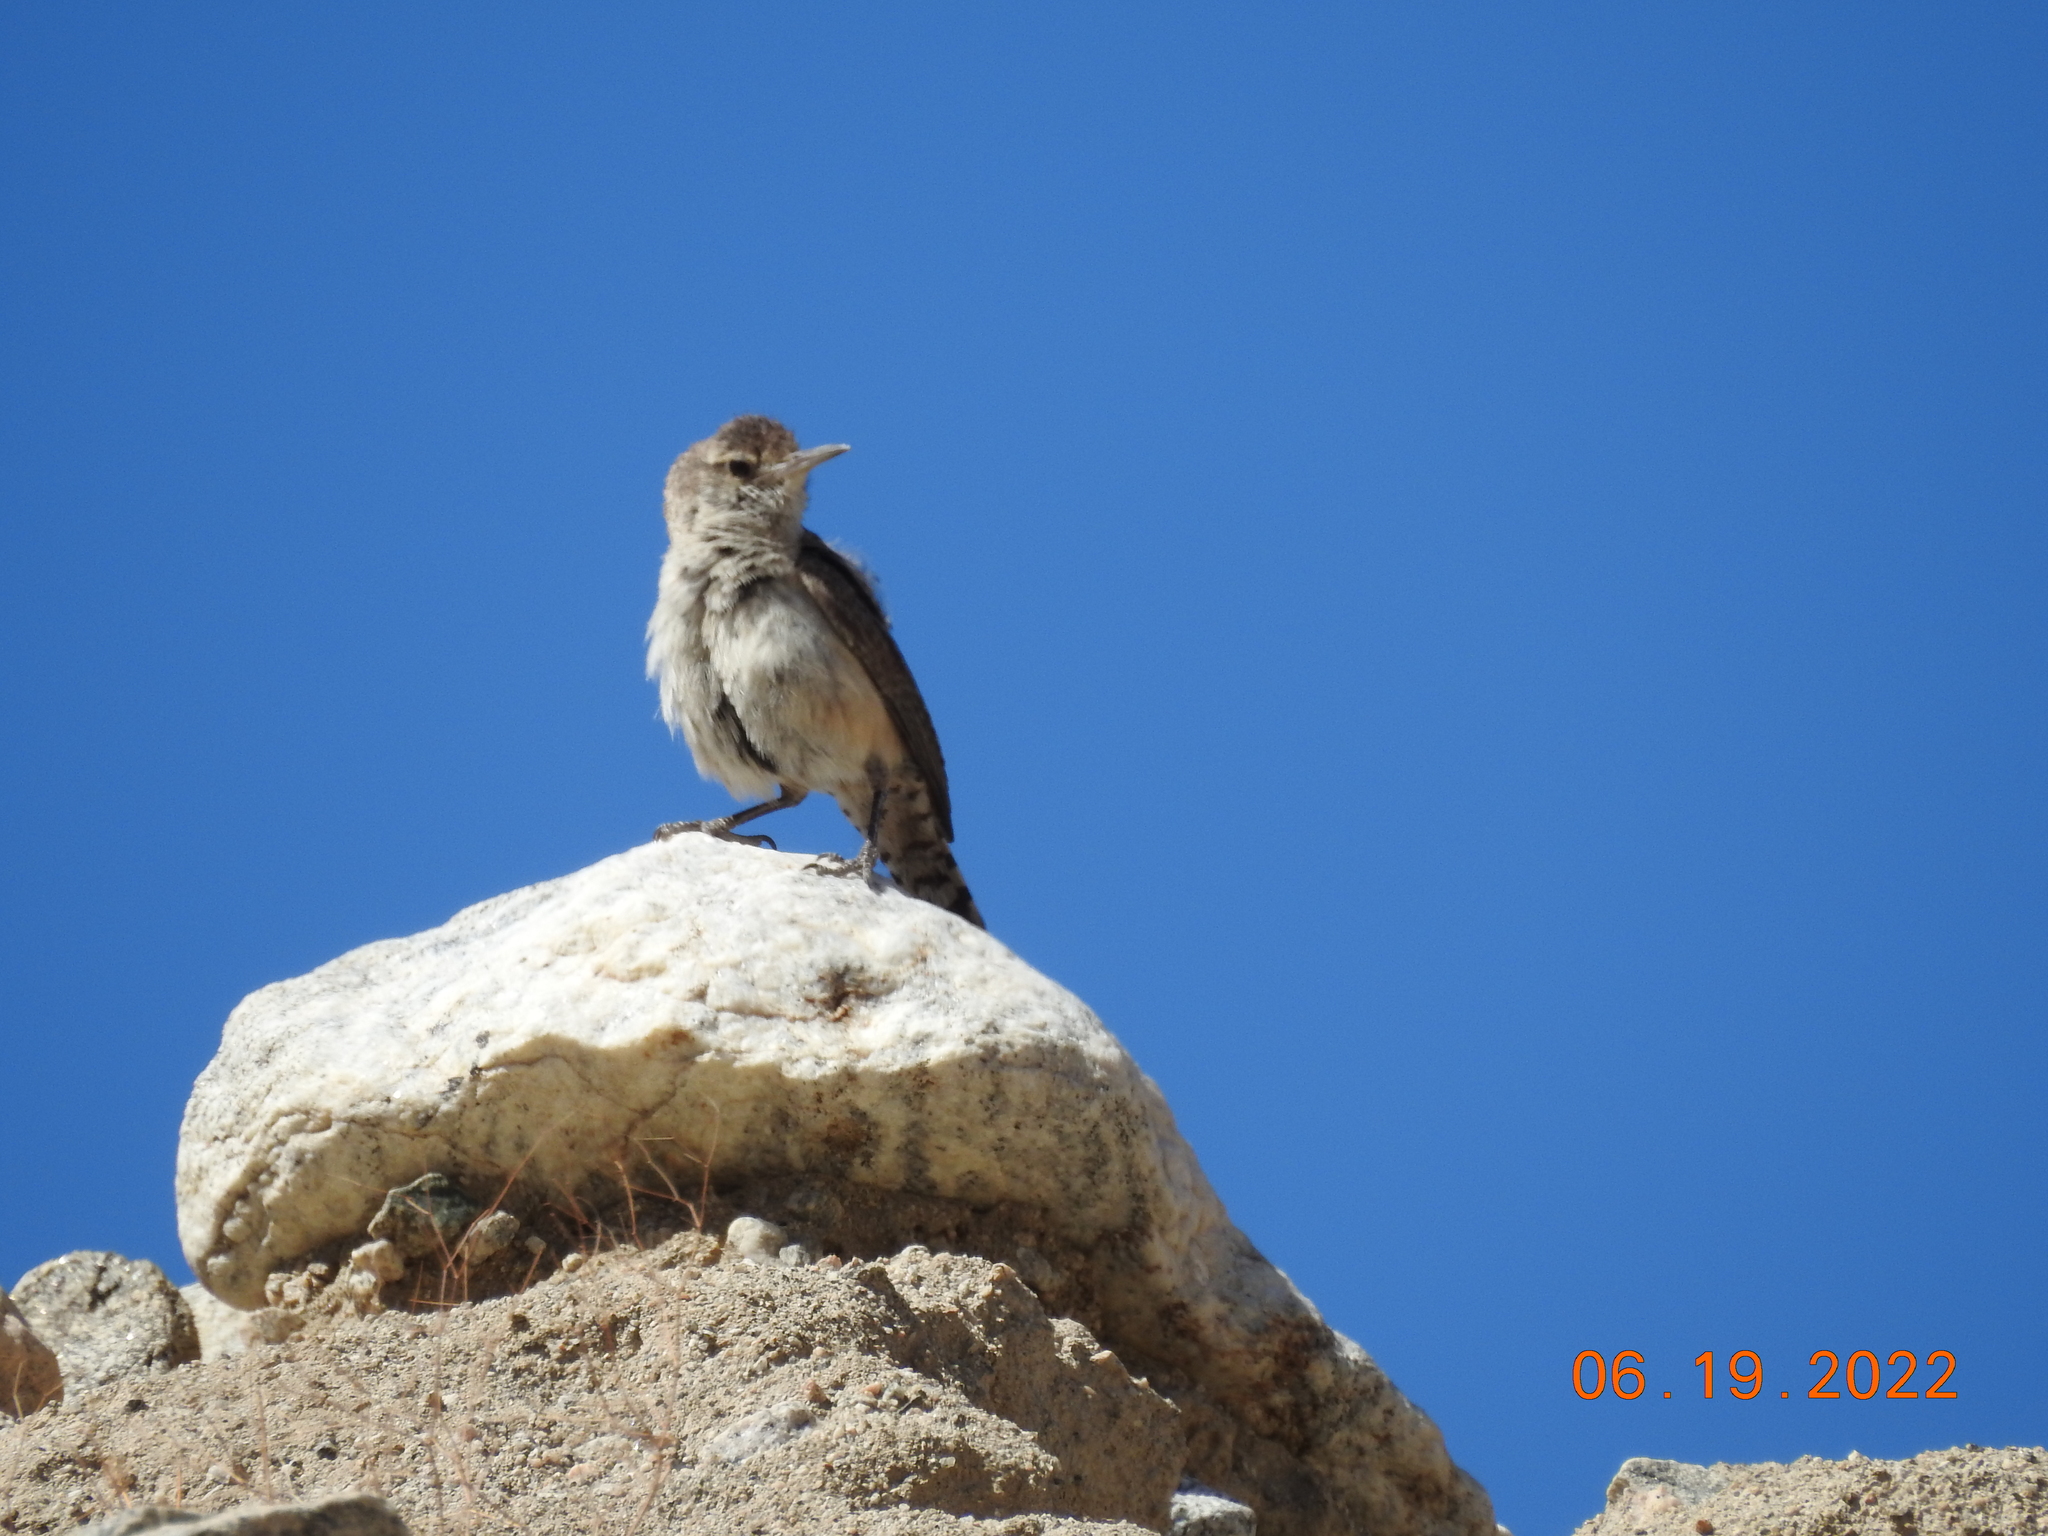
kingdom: Animalia
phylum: Chordata
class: Aves
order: Passeriformes
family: Troglodytidae
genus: Salpinctes
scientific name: Salpinctes obsoletus
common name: Rock wren
